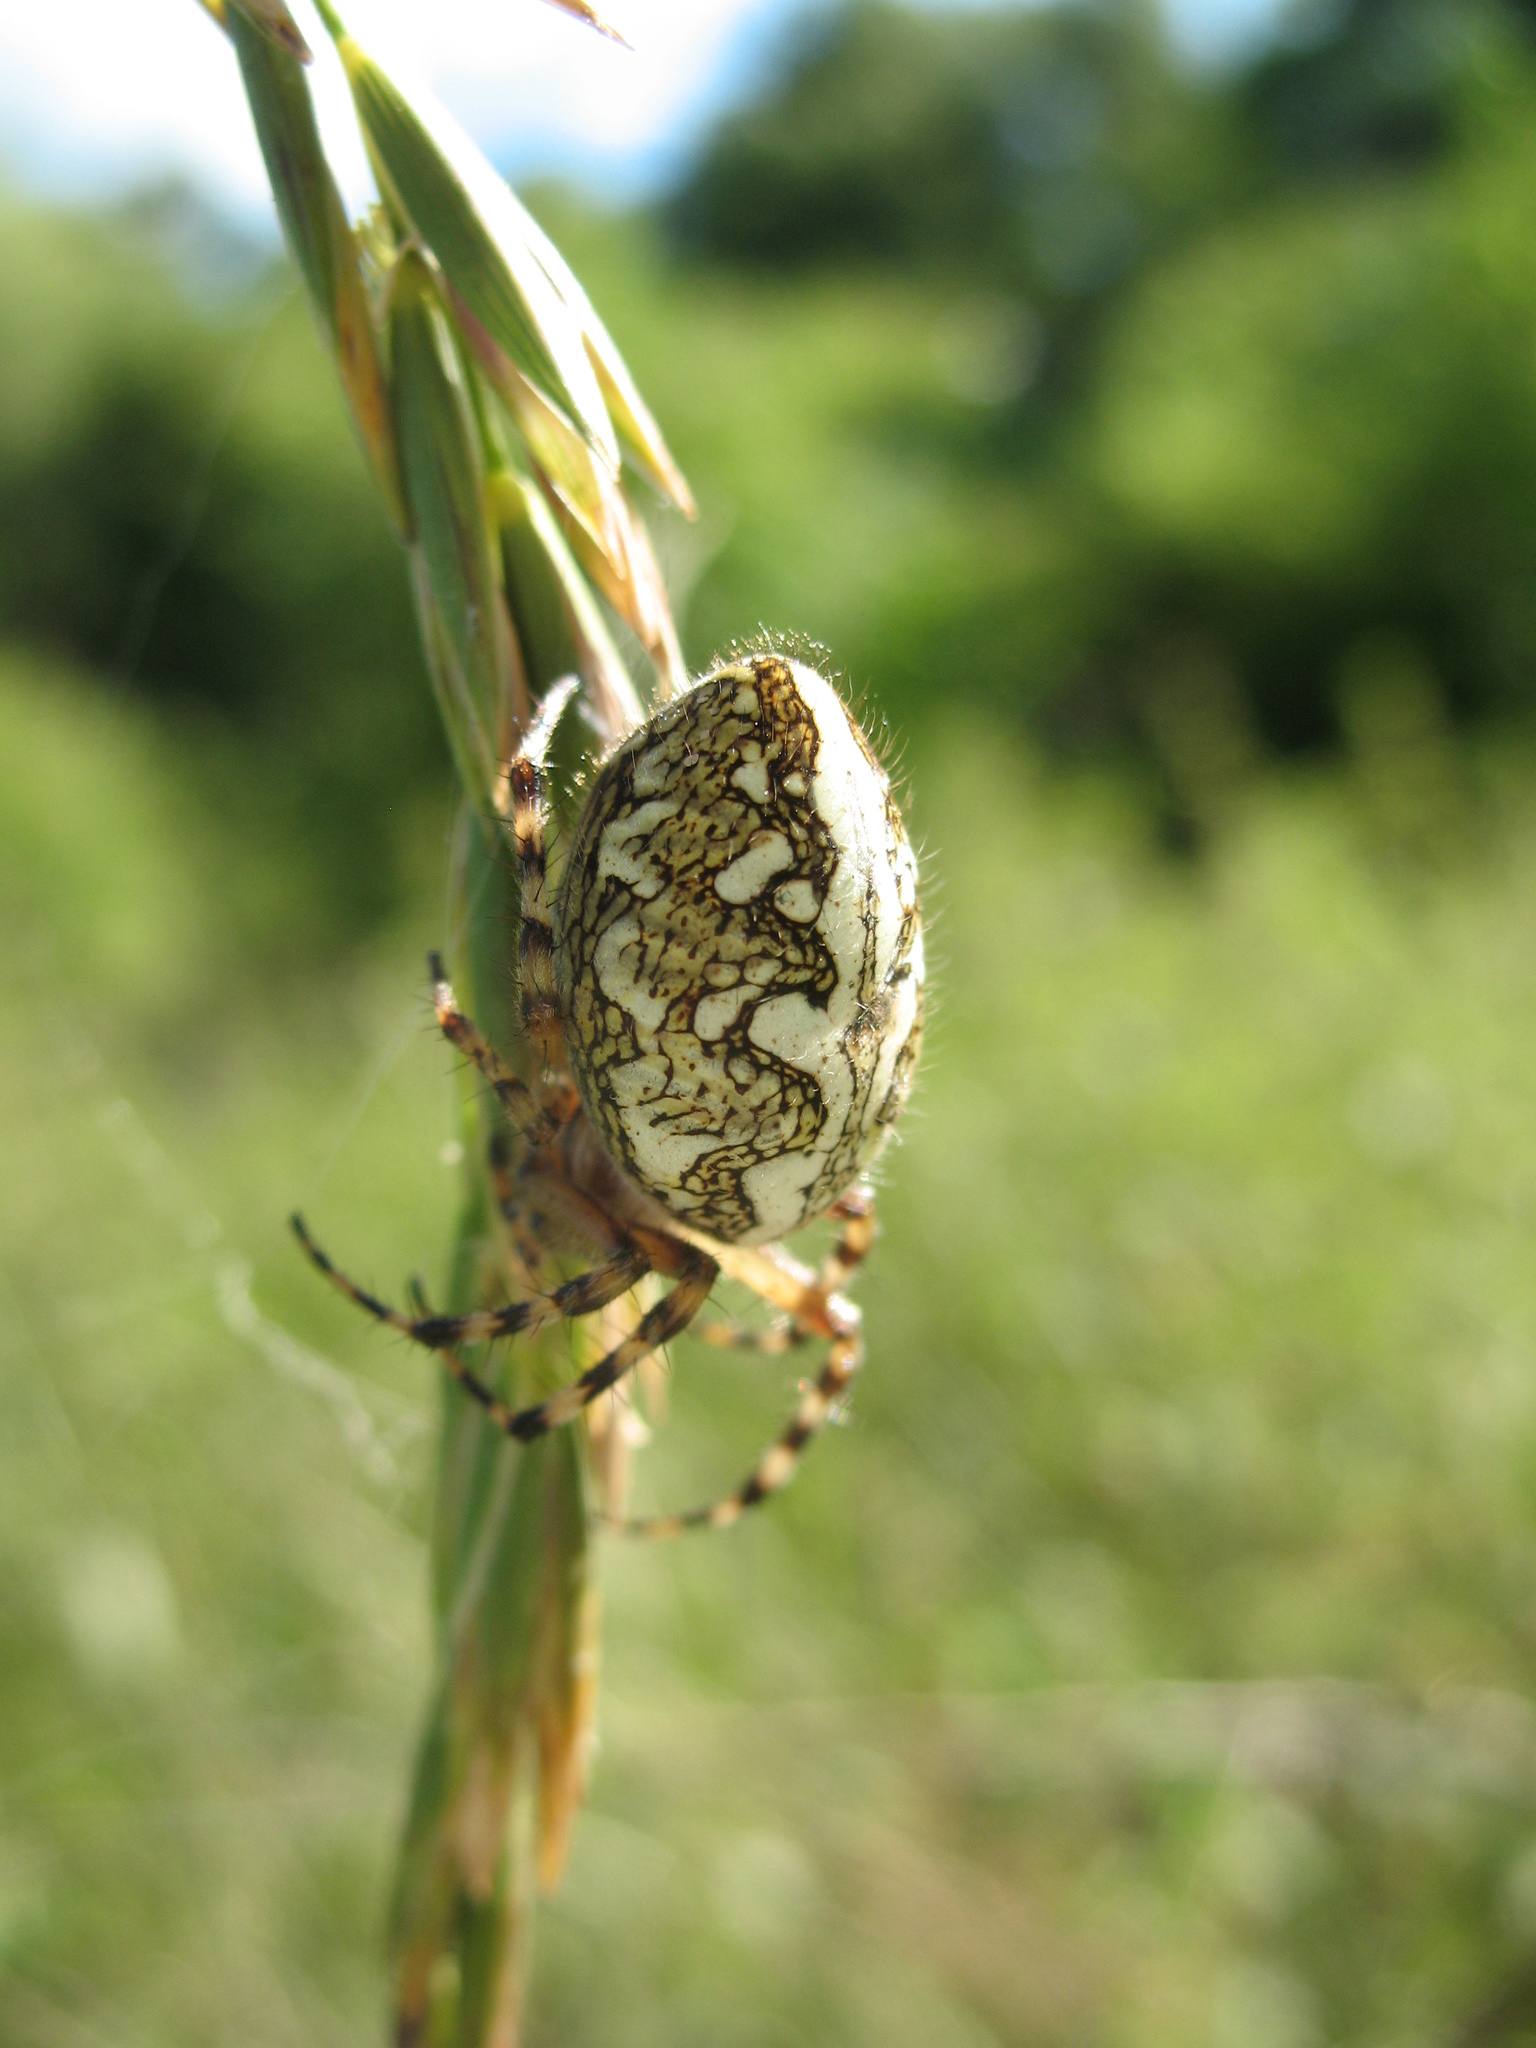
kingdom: Animalia
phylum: Arthropoda
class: Arachnida
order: Araneae
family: Araneidae
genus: Aculepeira
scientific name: Aculepeira ceropegia
